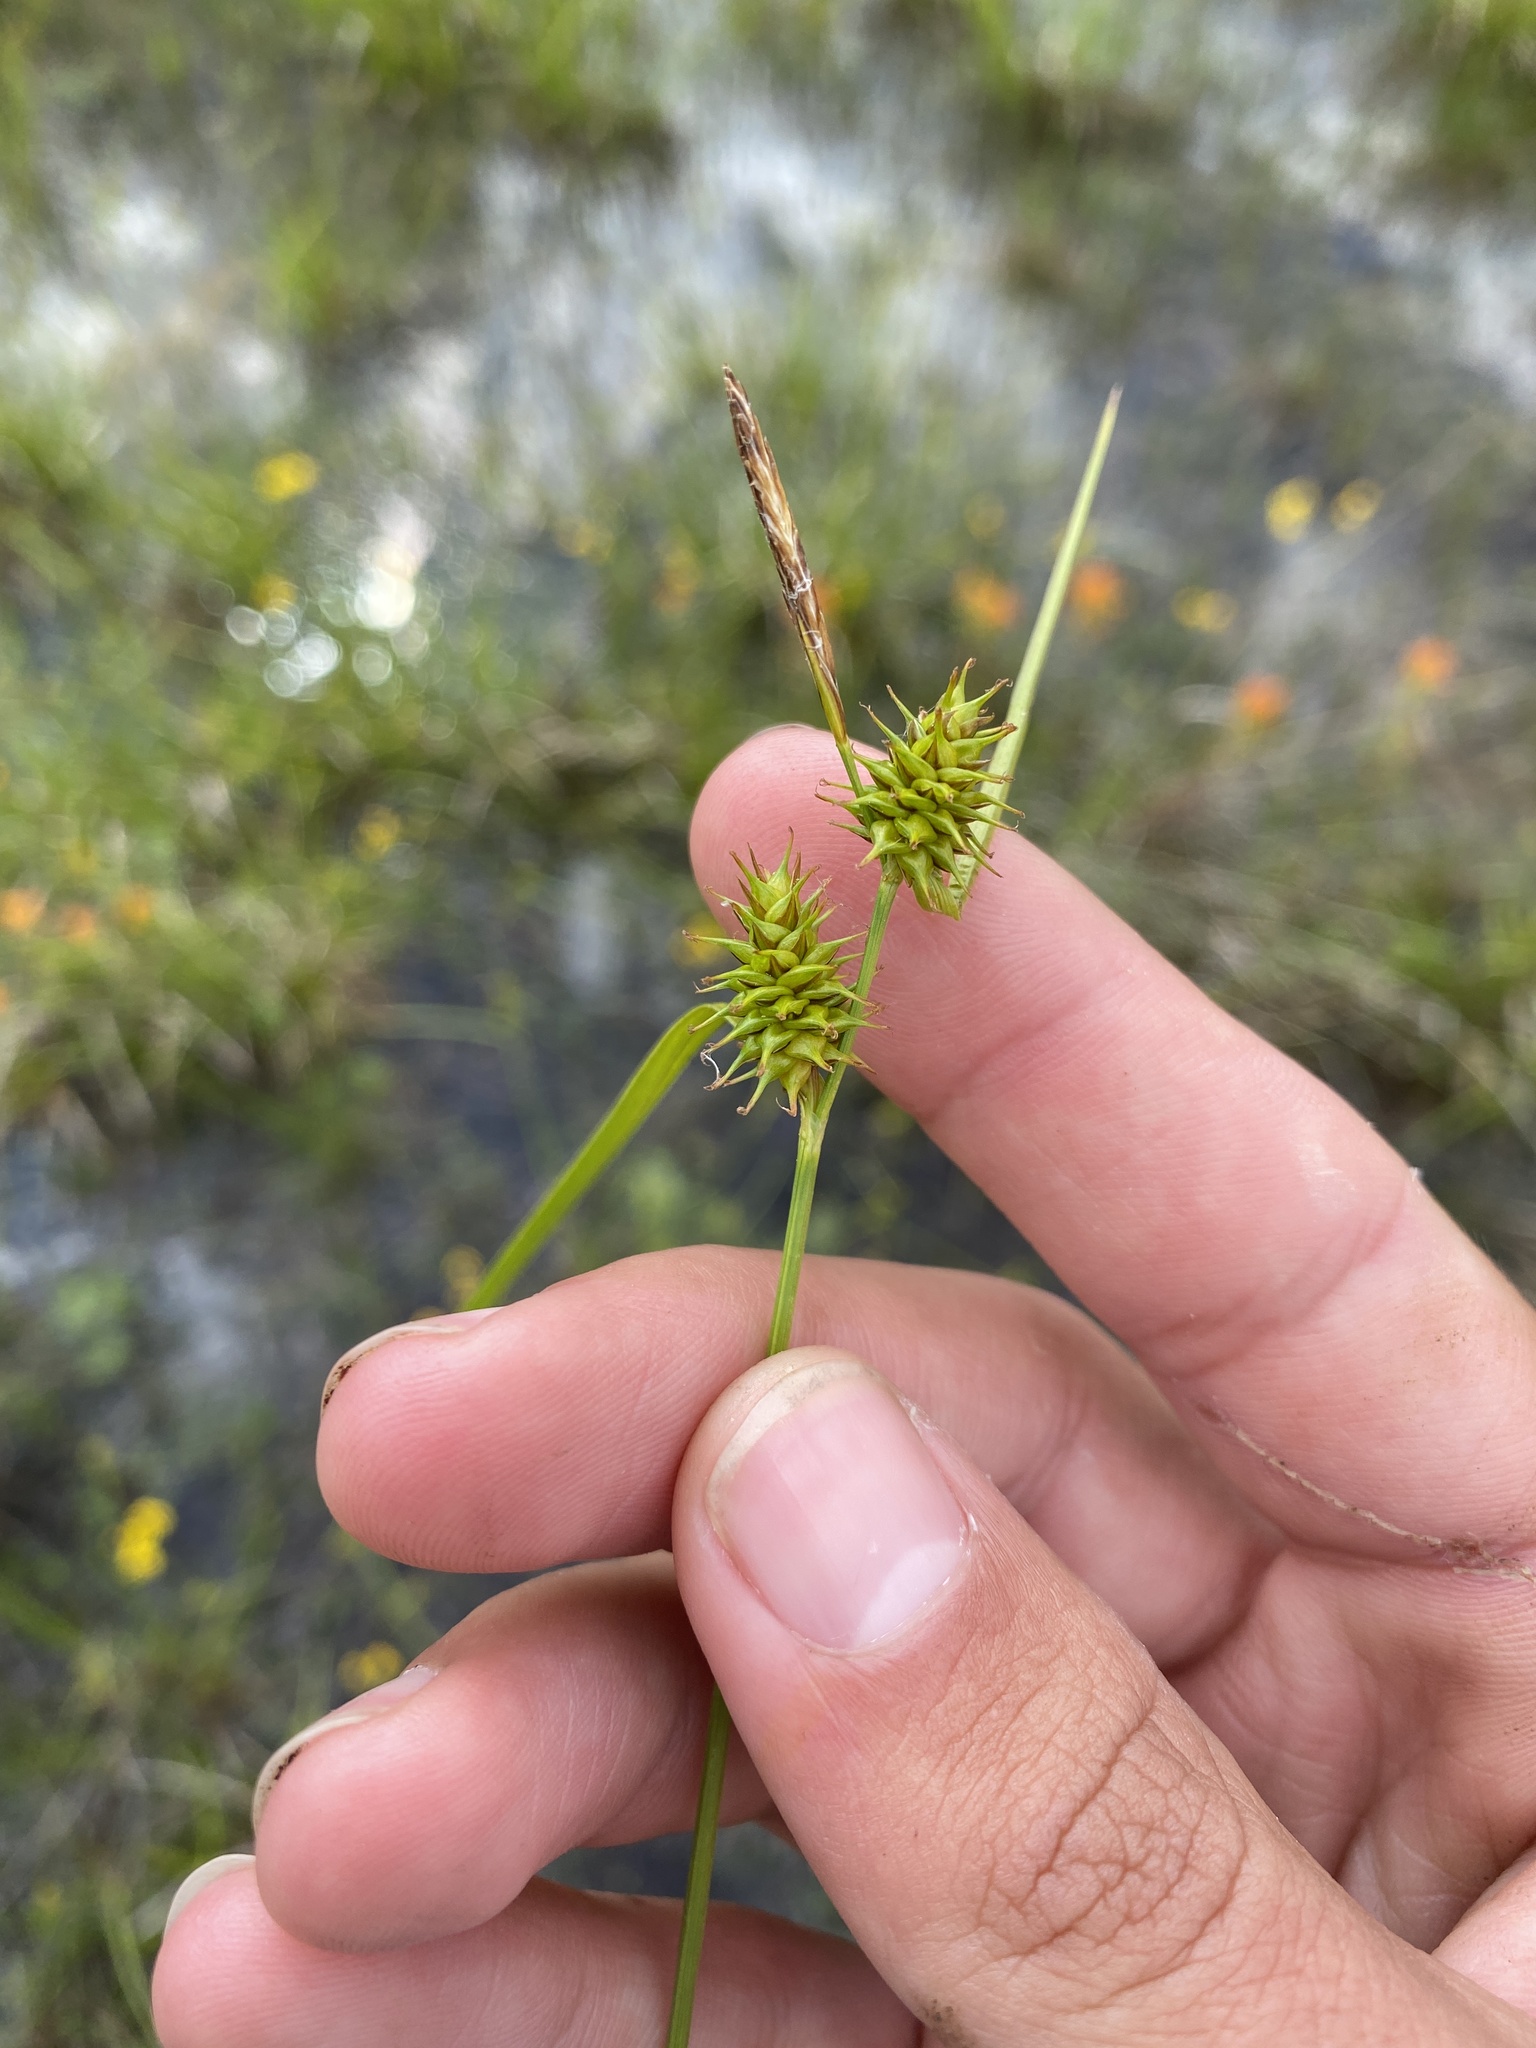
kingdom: Plantae
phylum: Tracheophyta
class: Liliopsida
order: Poales
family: Cyperaceae
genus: Carex
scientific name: Carex flava
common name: Large yellow-sedge
